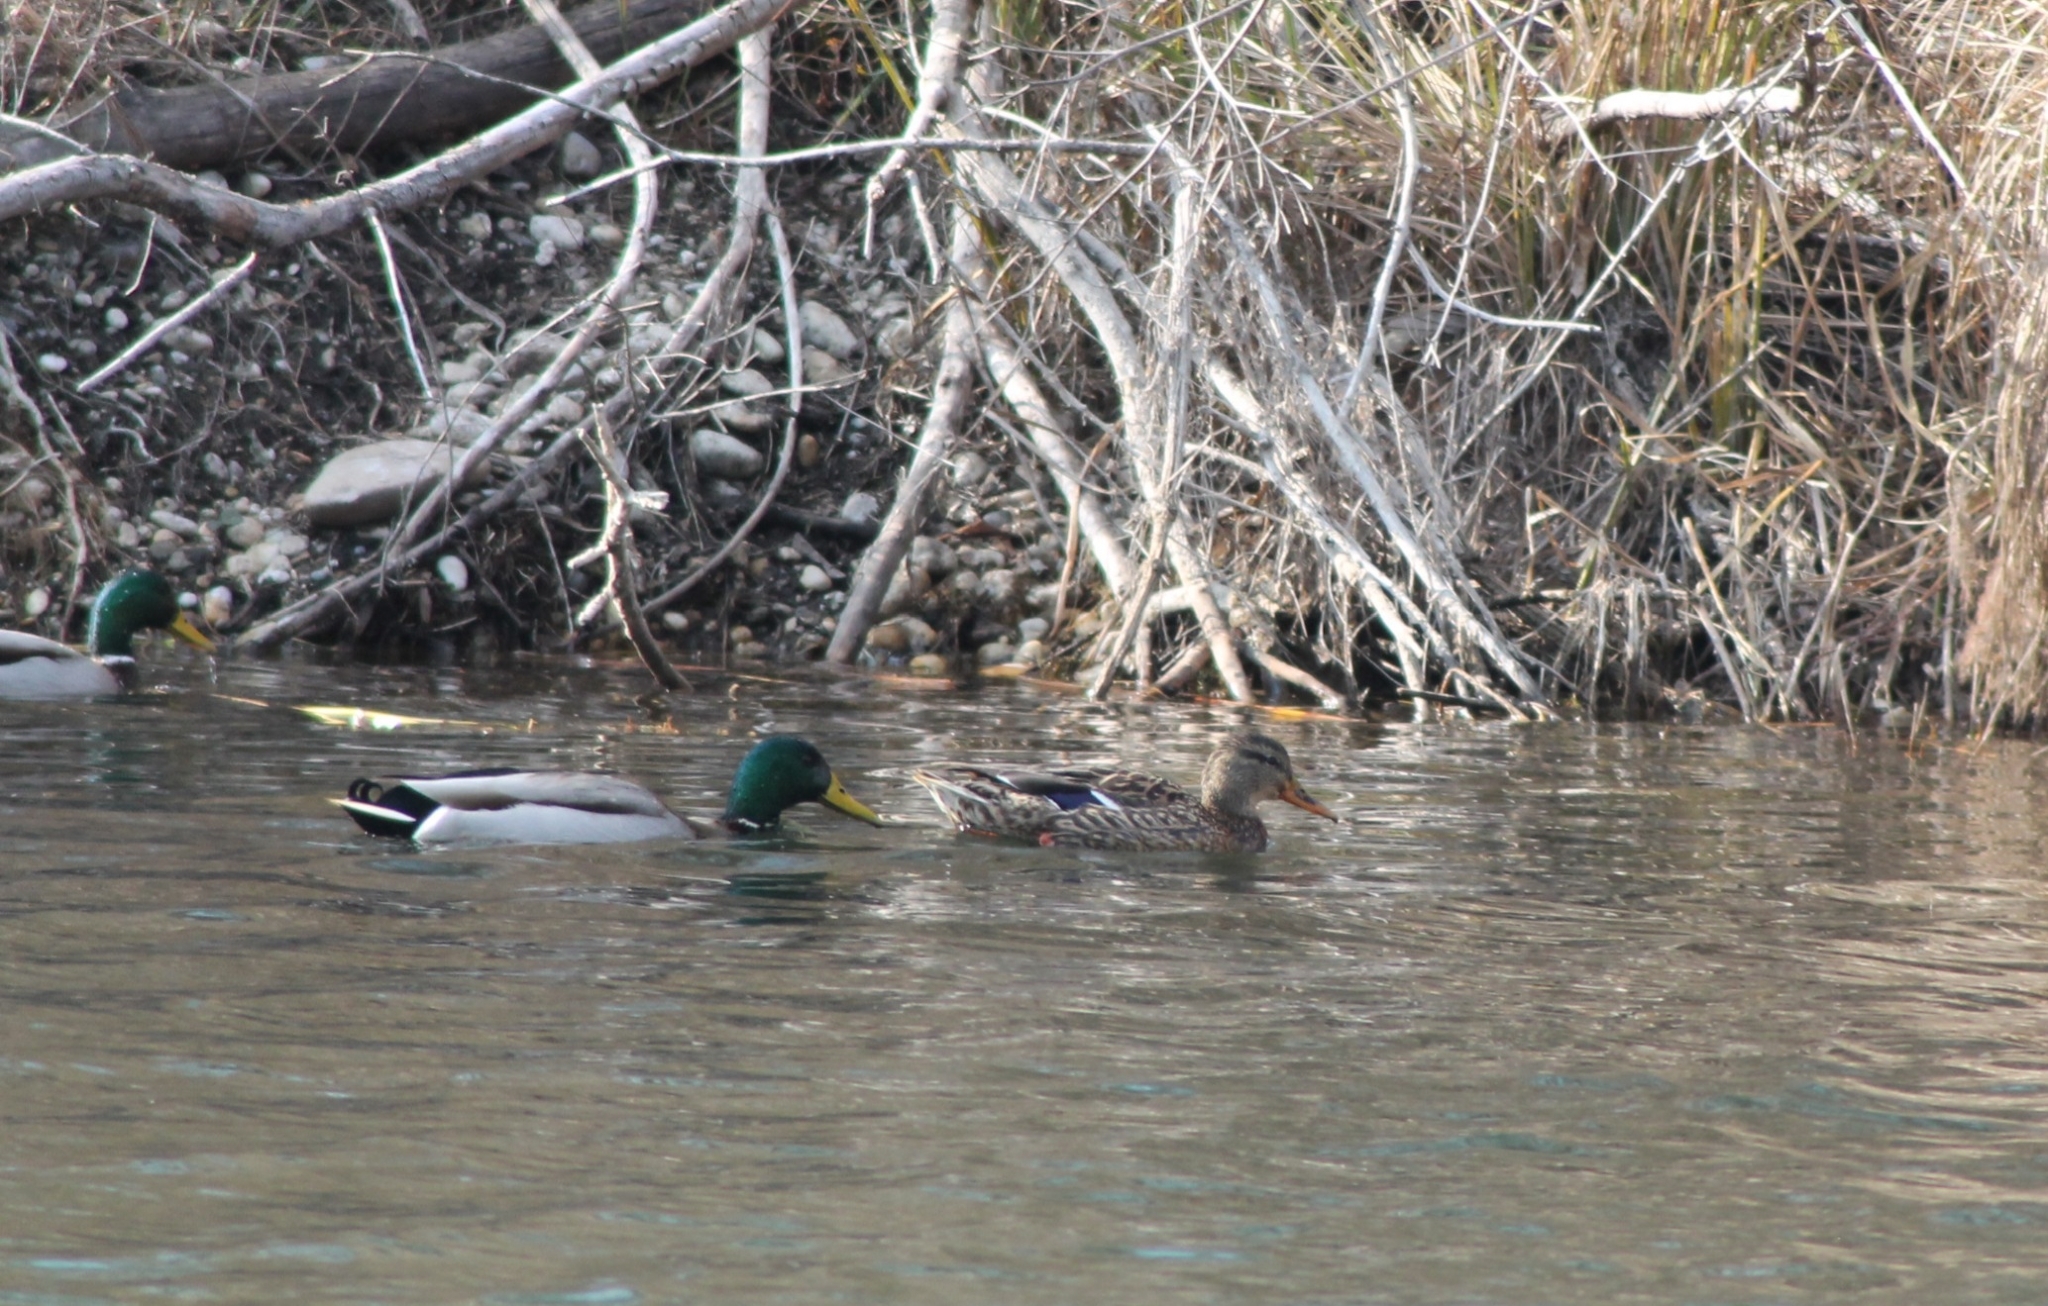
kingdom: Animalia
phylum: Chordata
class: Aves
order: Anseriformes
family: Anatidae
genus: Anas
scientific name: Anas platyrhynchos
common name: Mallard
